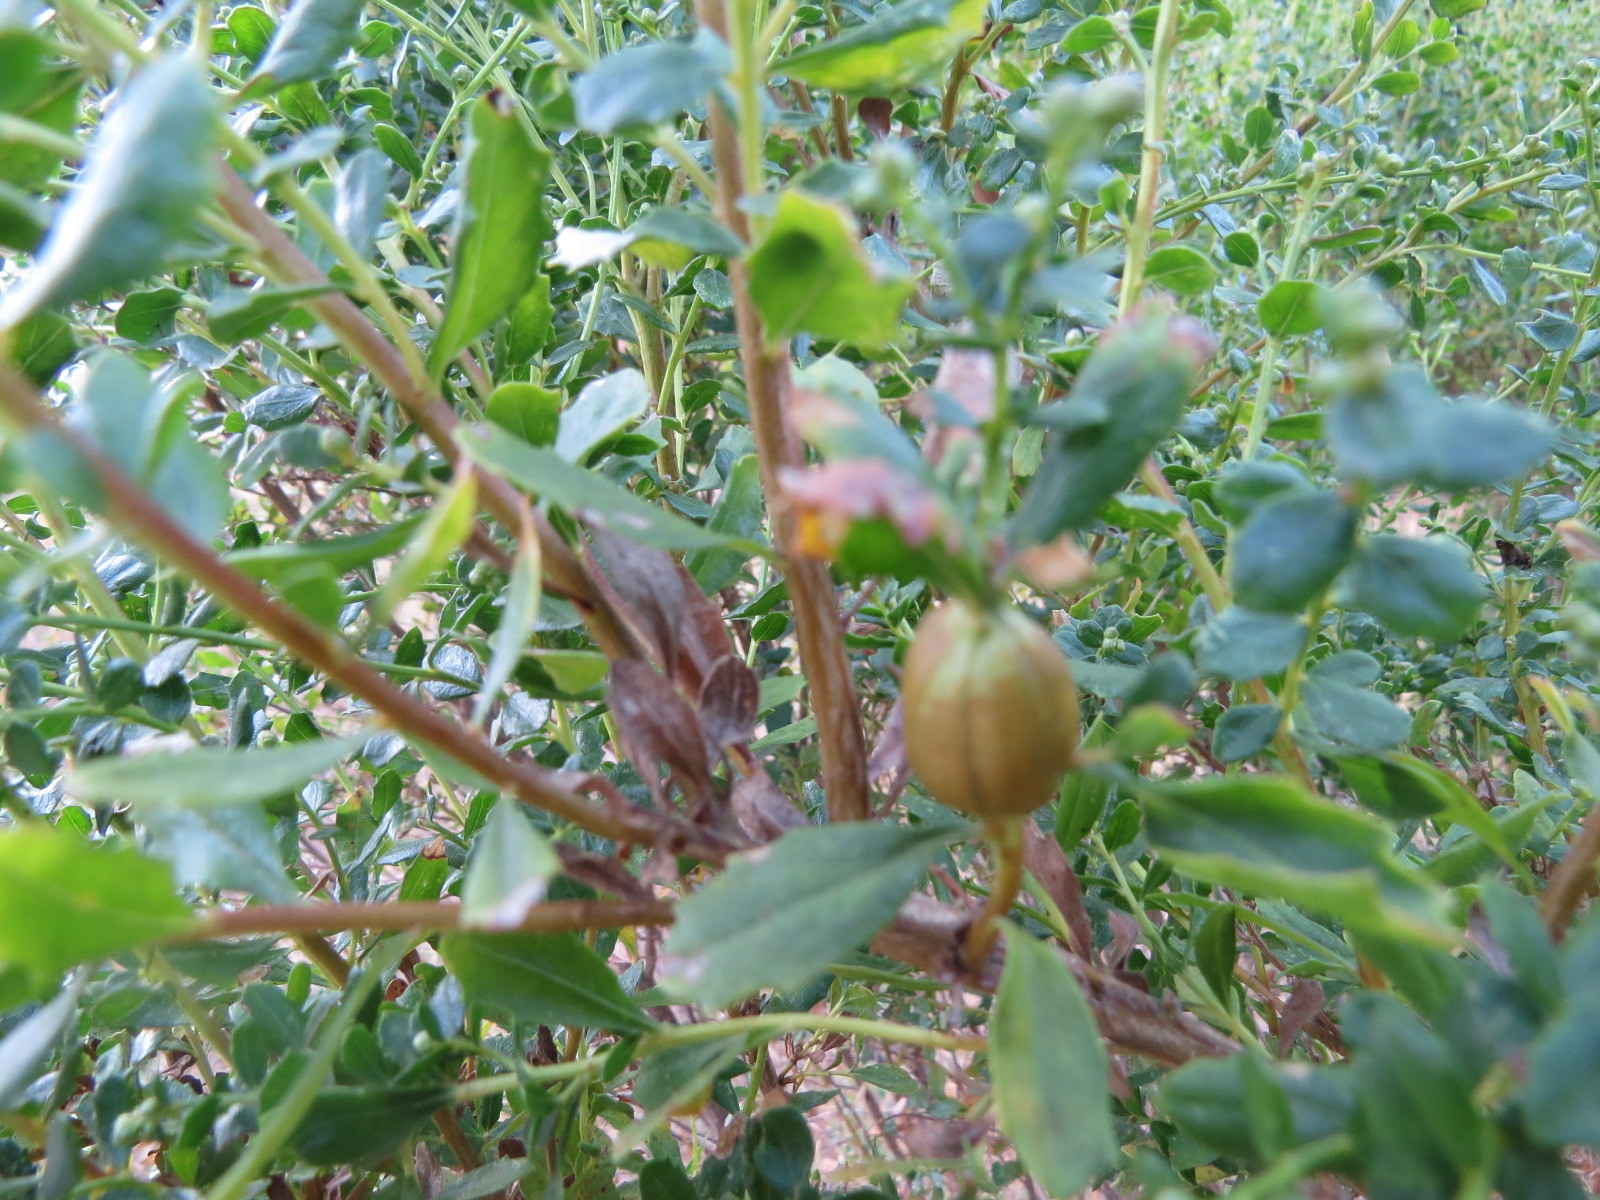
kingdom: Animalia
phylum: Arthropoda
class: Insecta
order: Lepidoptera
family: Gelechiidae
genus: Gnorimoschema
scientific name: Gnorimoschema baccharisella
